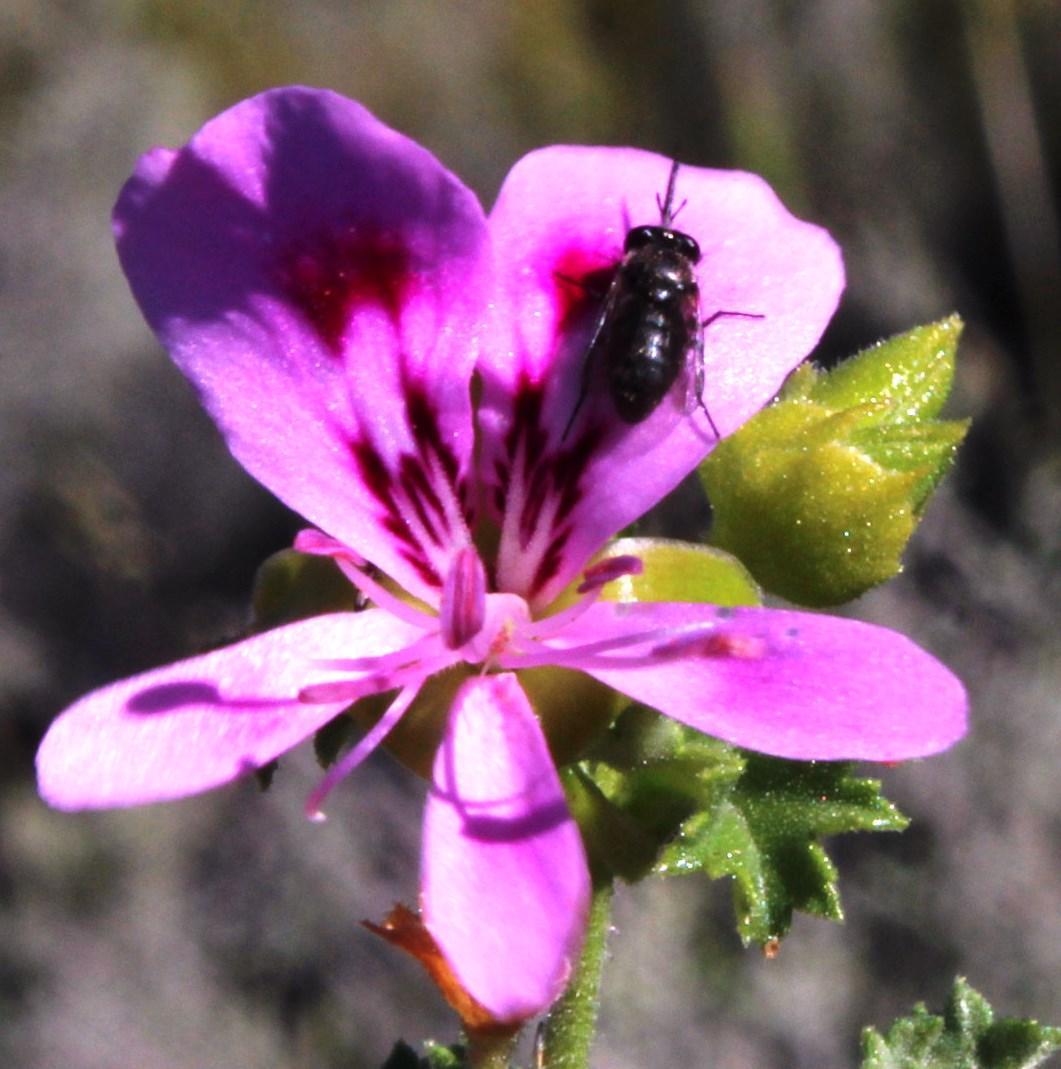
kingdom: Animalia
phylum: Arthropoda
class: Insecta
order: Diptera
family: Bombyliidae
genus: Megapalpus
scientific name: Megapalpus capensis
